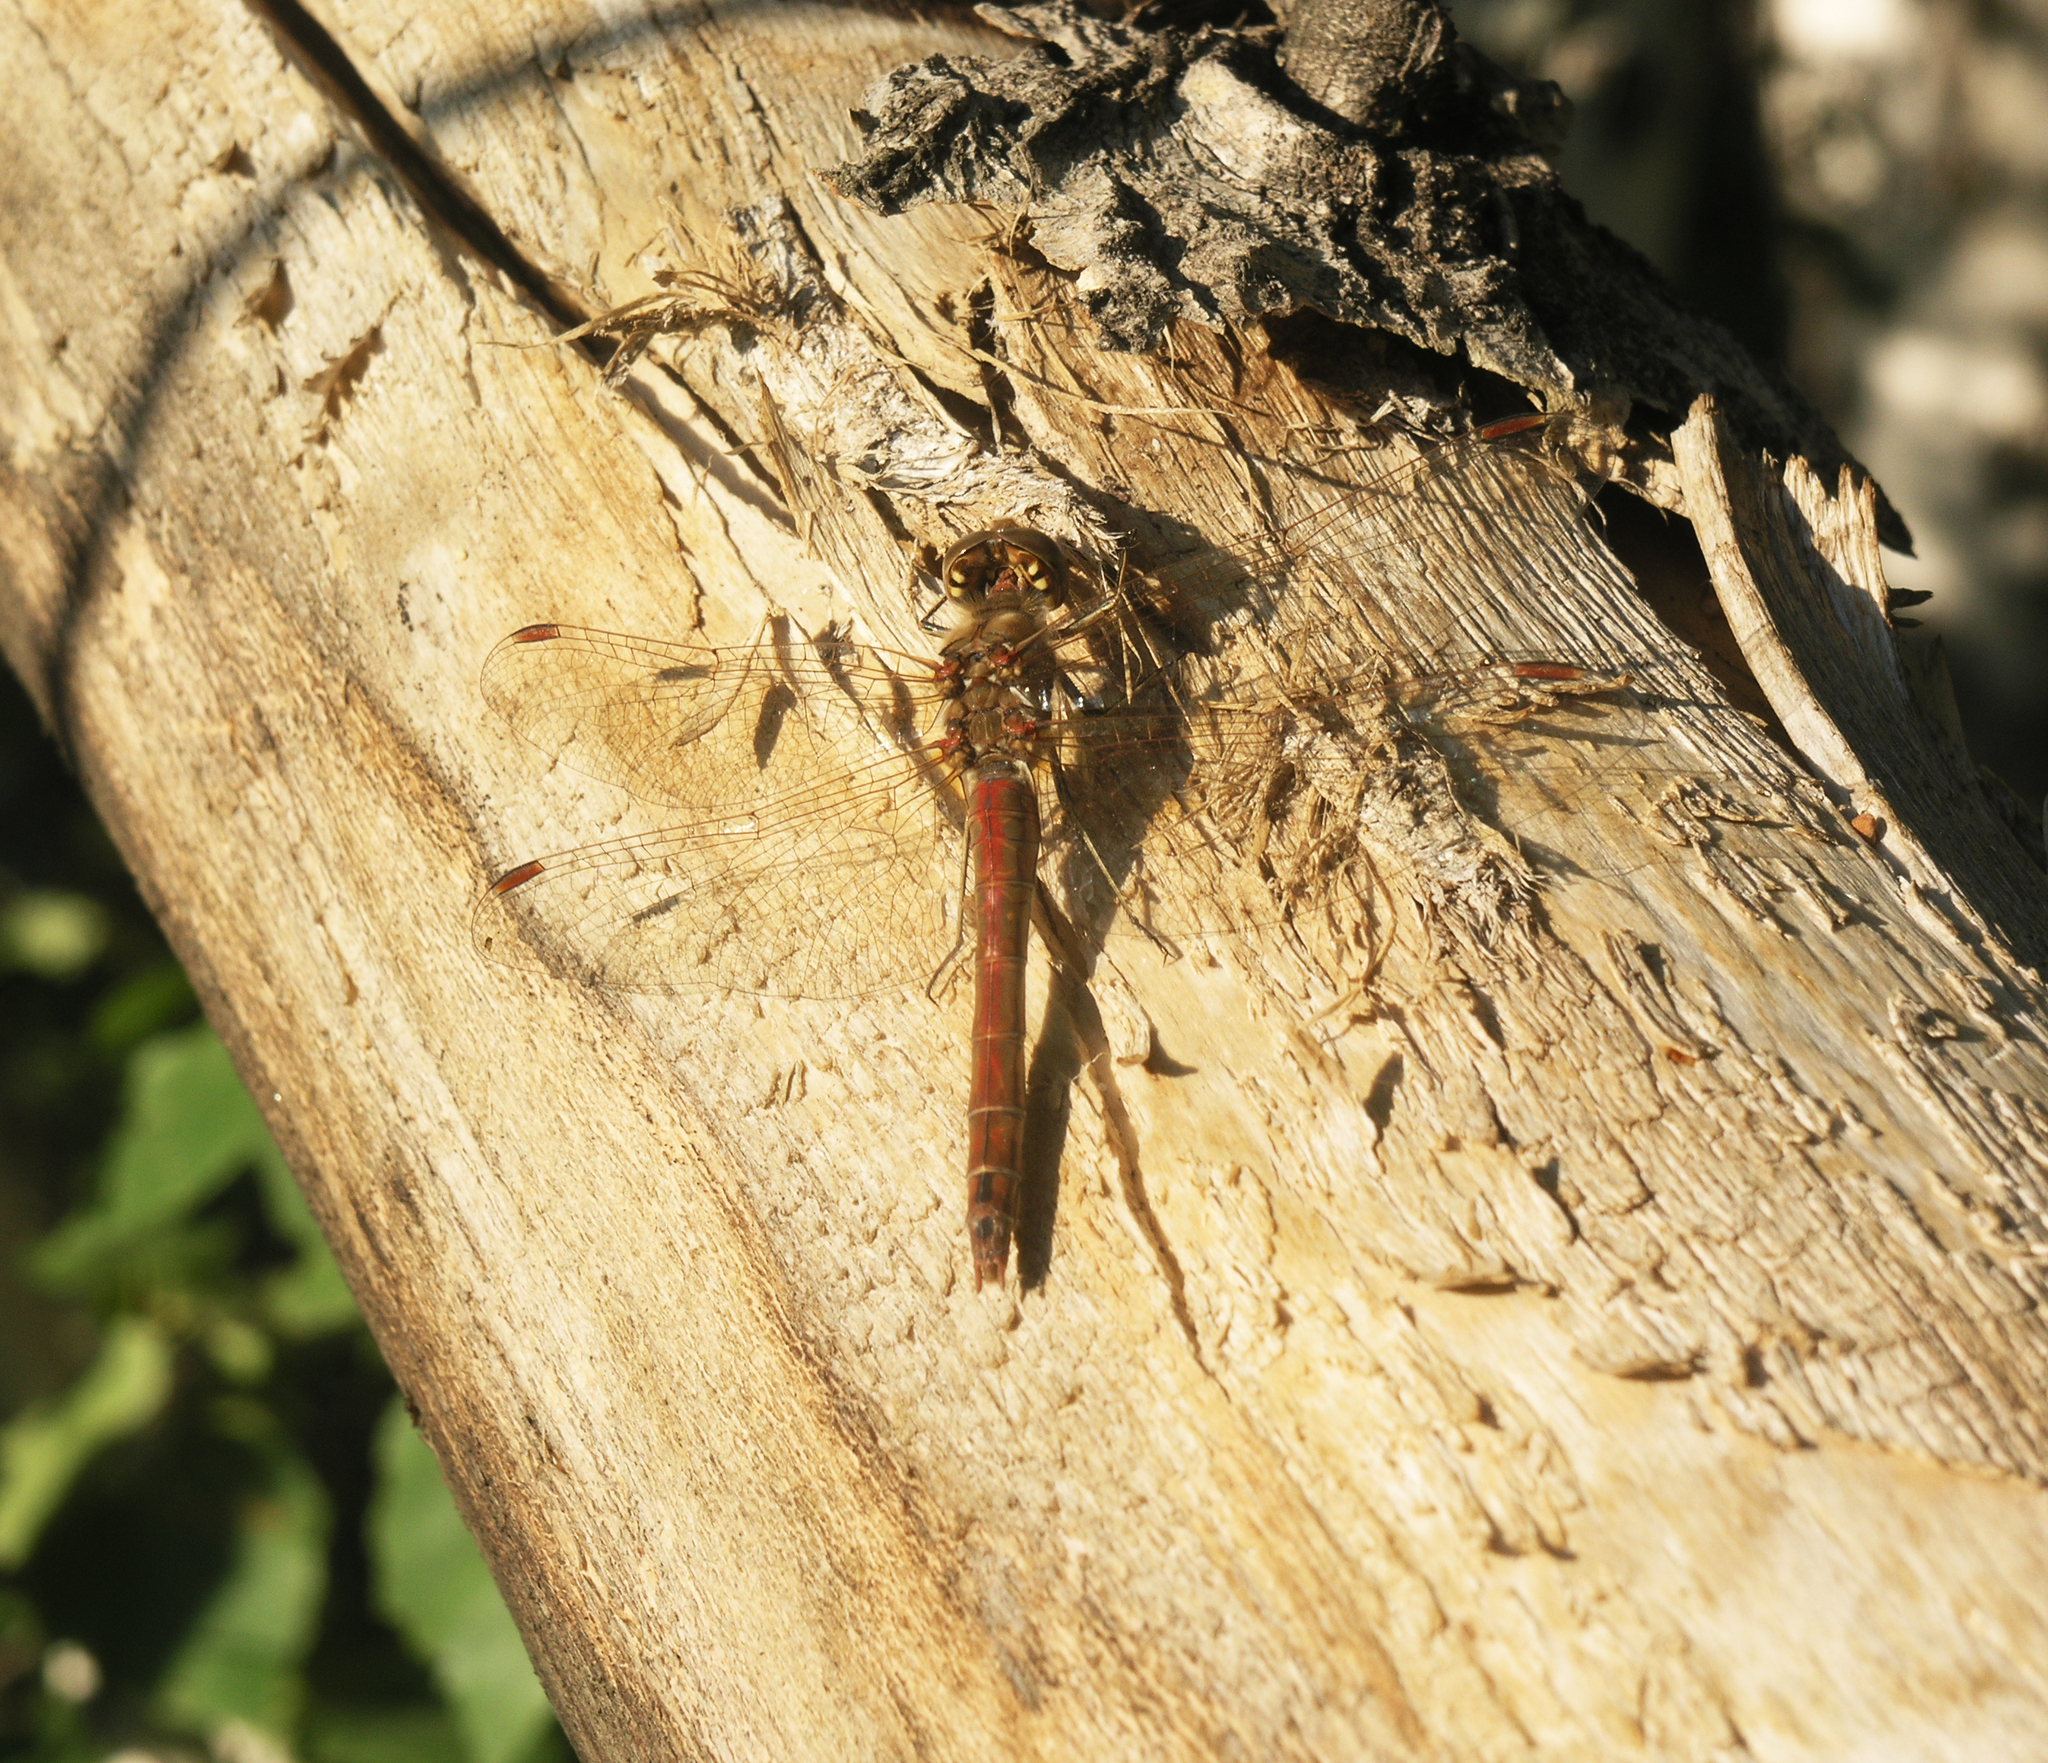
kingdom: Animalia
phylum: Arthropoda
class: Insecta
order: Odonata
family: Libellulidae
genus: Sympetrum
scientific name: Sympetrum vulgatum
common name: Vagrant darter
